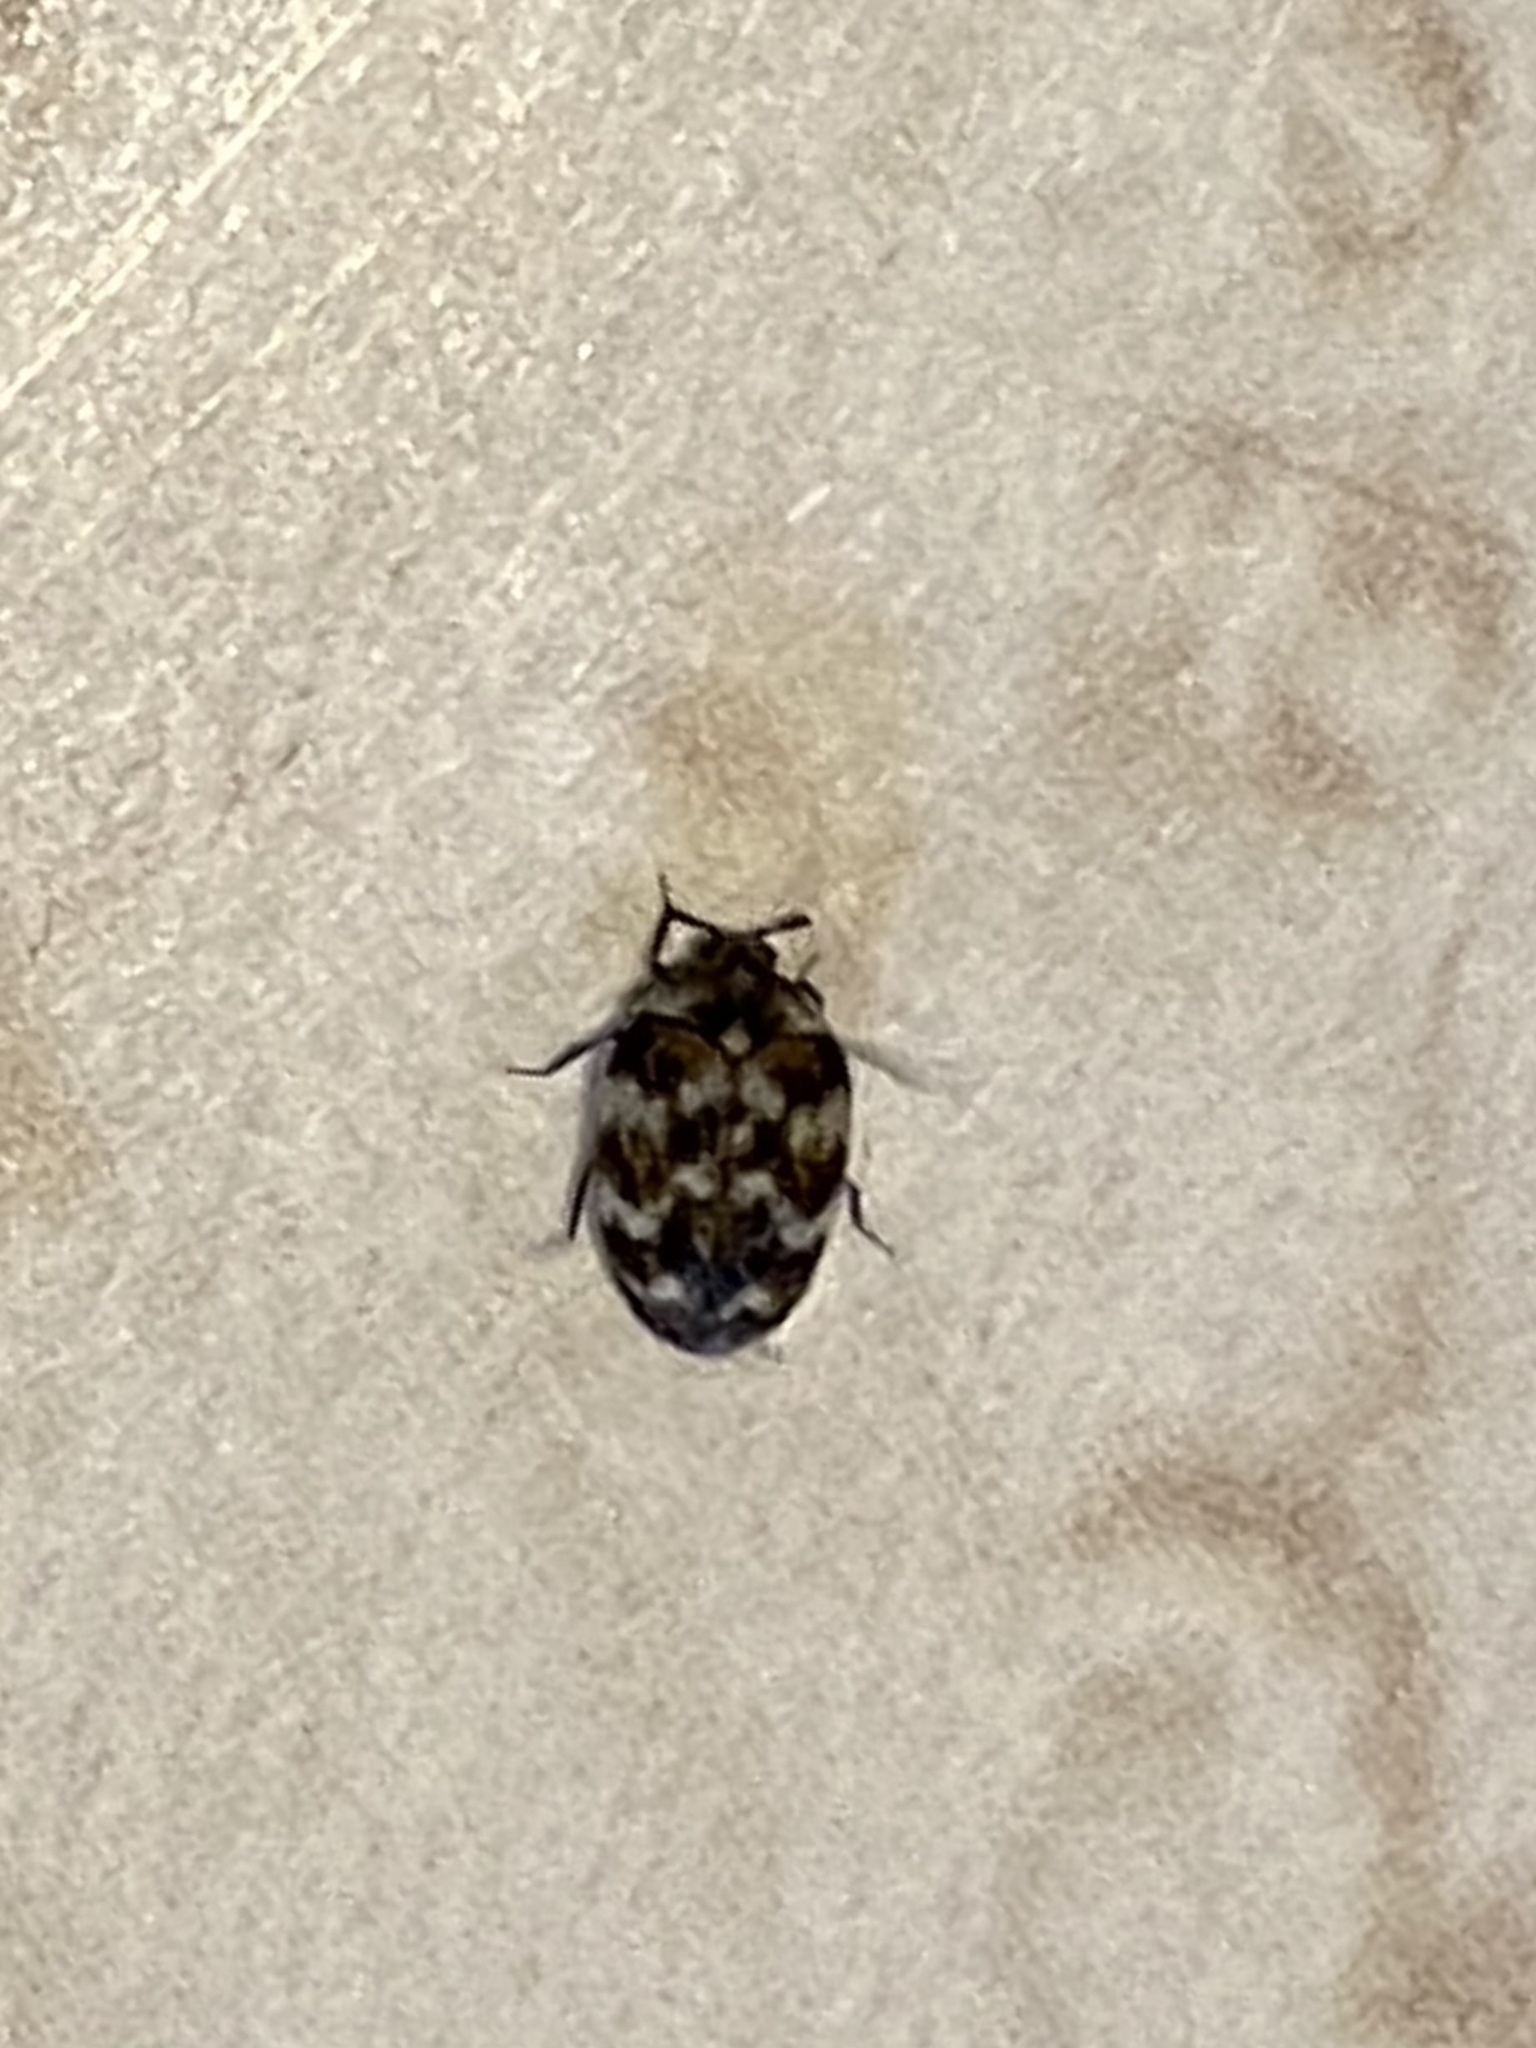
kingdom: Animalia
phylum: Arthropoda
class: Insecta
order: Coleoptera
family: Dermestidae
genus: Anthrenus
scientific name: Anthrenus verbasci
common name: Varied carpet beetle
